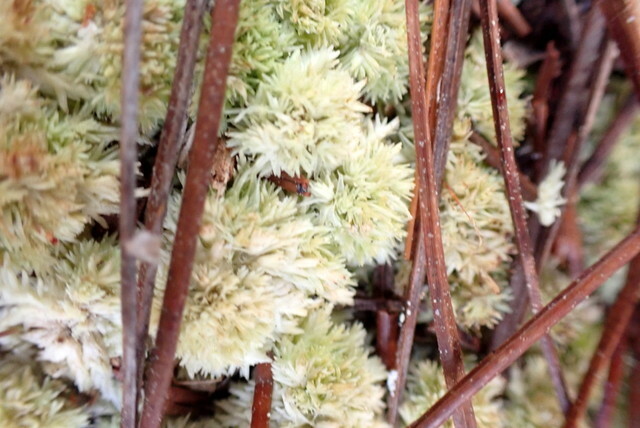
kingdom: Plantae
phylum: Bryophyta
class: Sphagnopsida
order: Sphagnales
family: Sphagnaceae
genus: Sphagnum
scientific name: Sphagnum strictum
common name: Pale bog-moss
